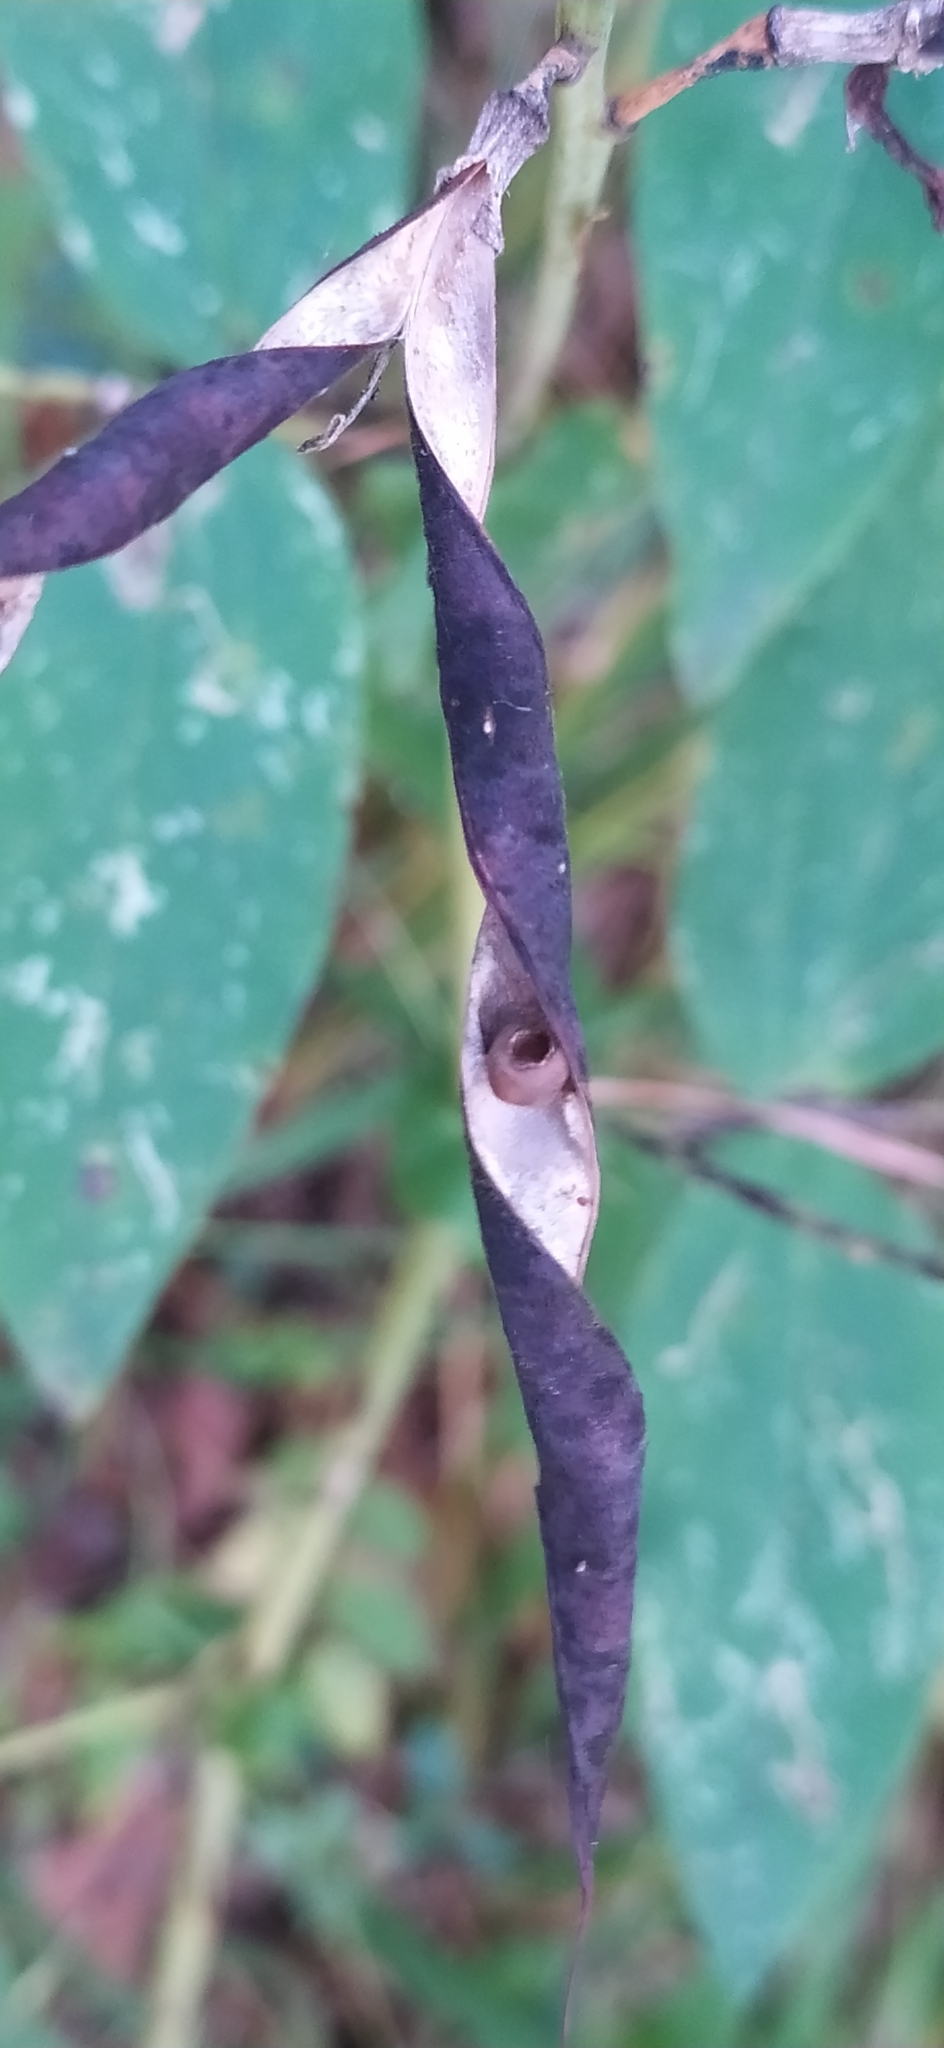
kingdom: Plantae
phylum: Tracheophyta
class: Magnoliopsida
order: Fabales
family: Fabaceae
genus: Lathyrus
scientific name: Lathyrus gmelinii
